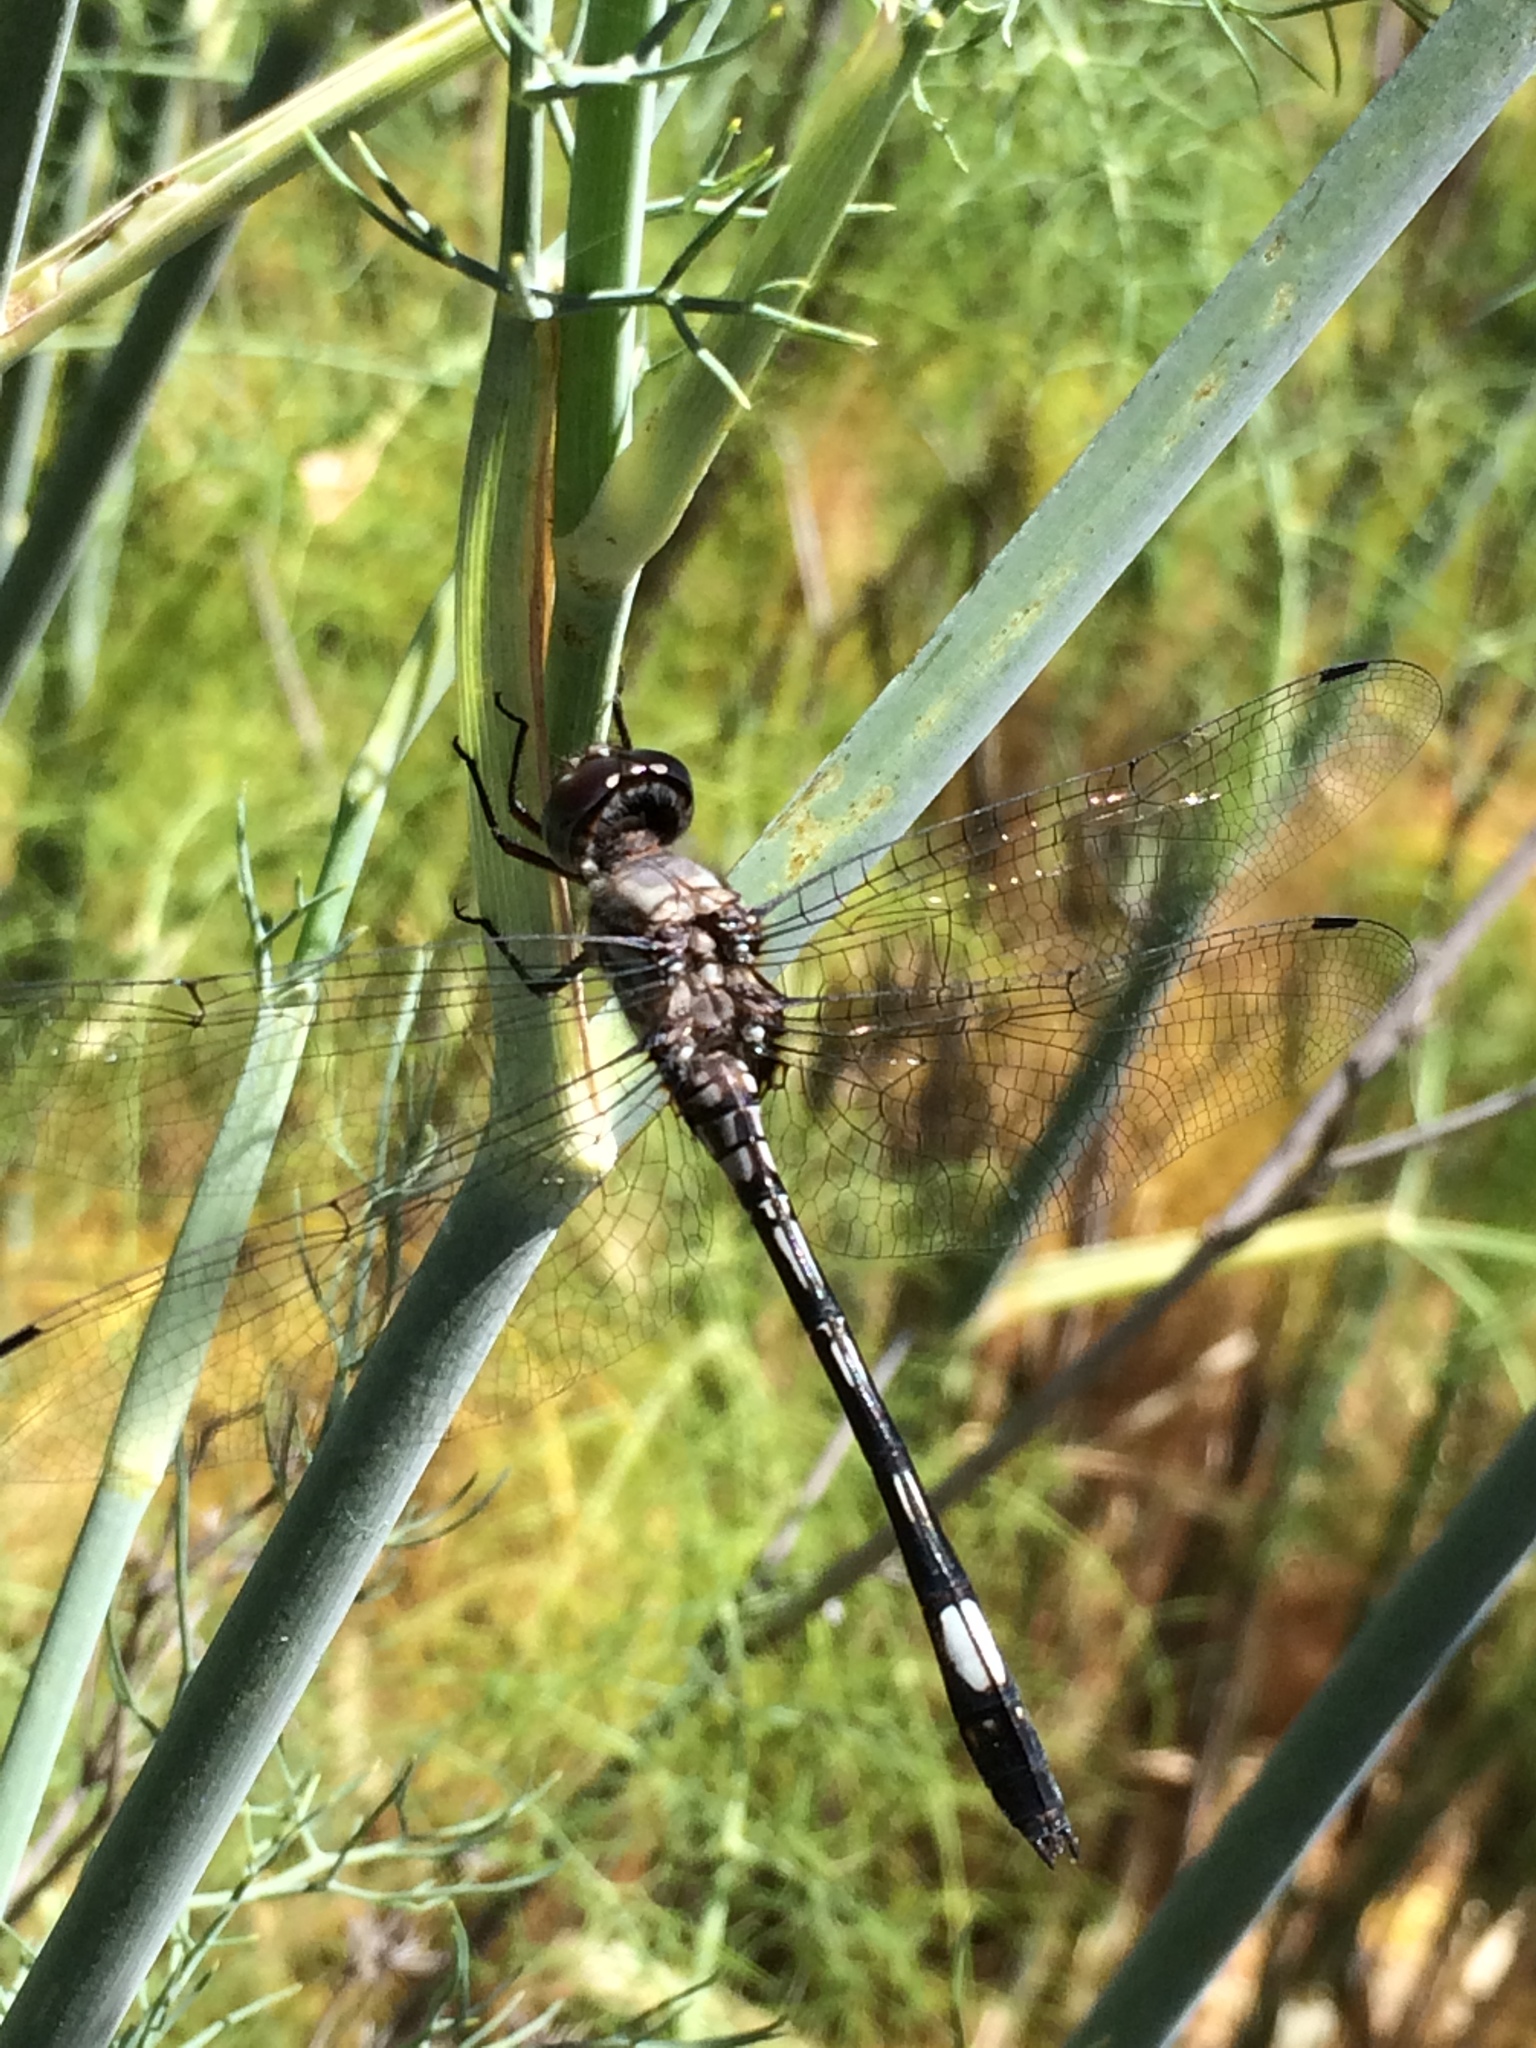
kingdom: Animalia
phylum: Arthropoda
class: Insecta
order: Odonata
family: Libellulidae
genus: Brechmorhoga
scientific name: Brechmorhoga mendax
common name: Pale-faced clubskimmer
